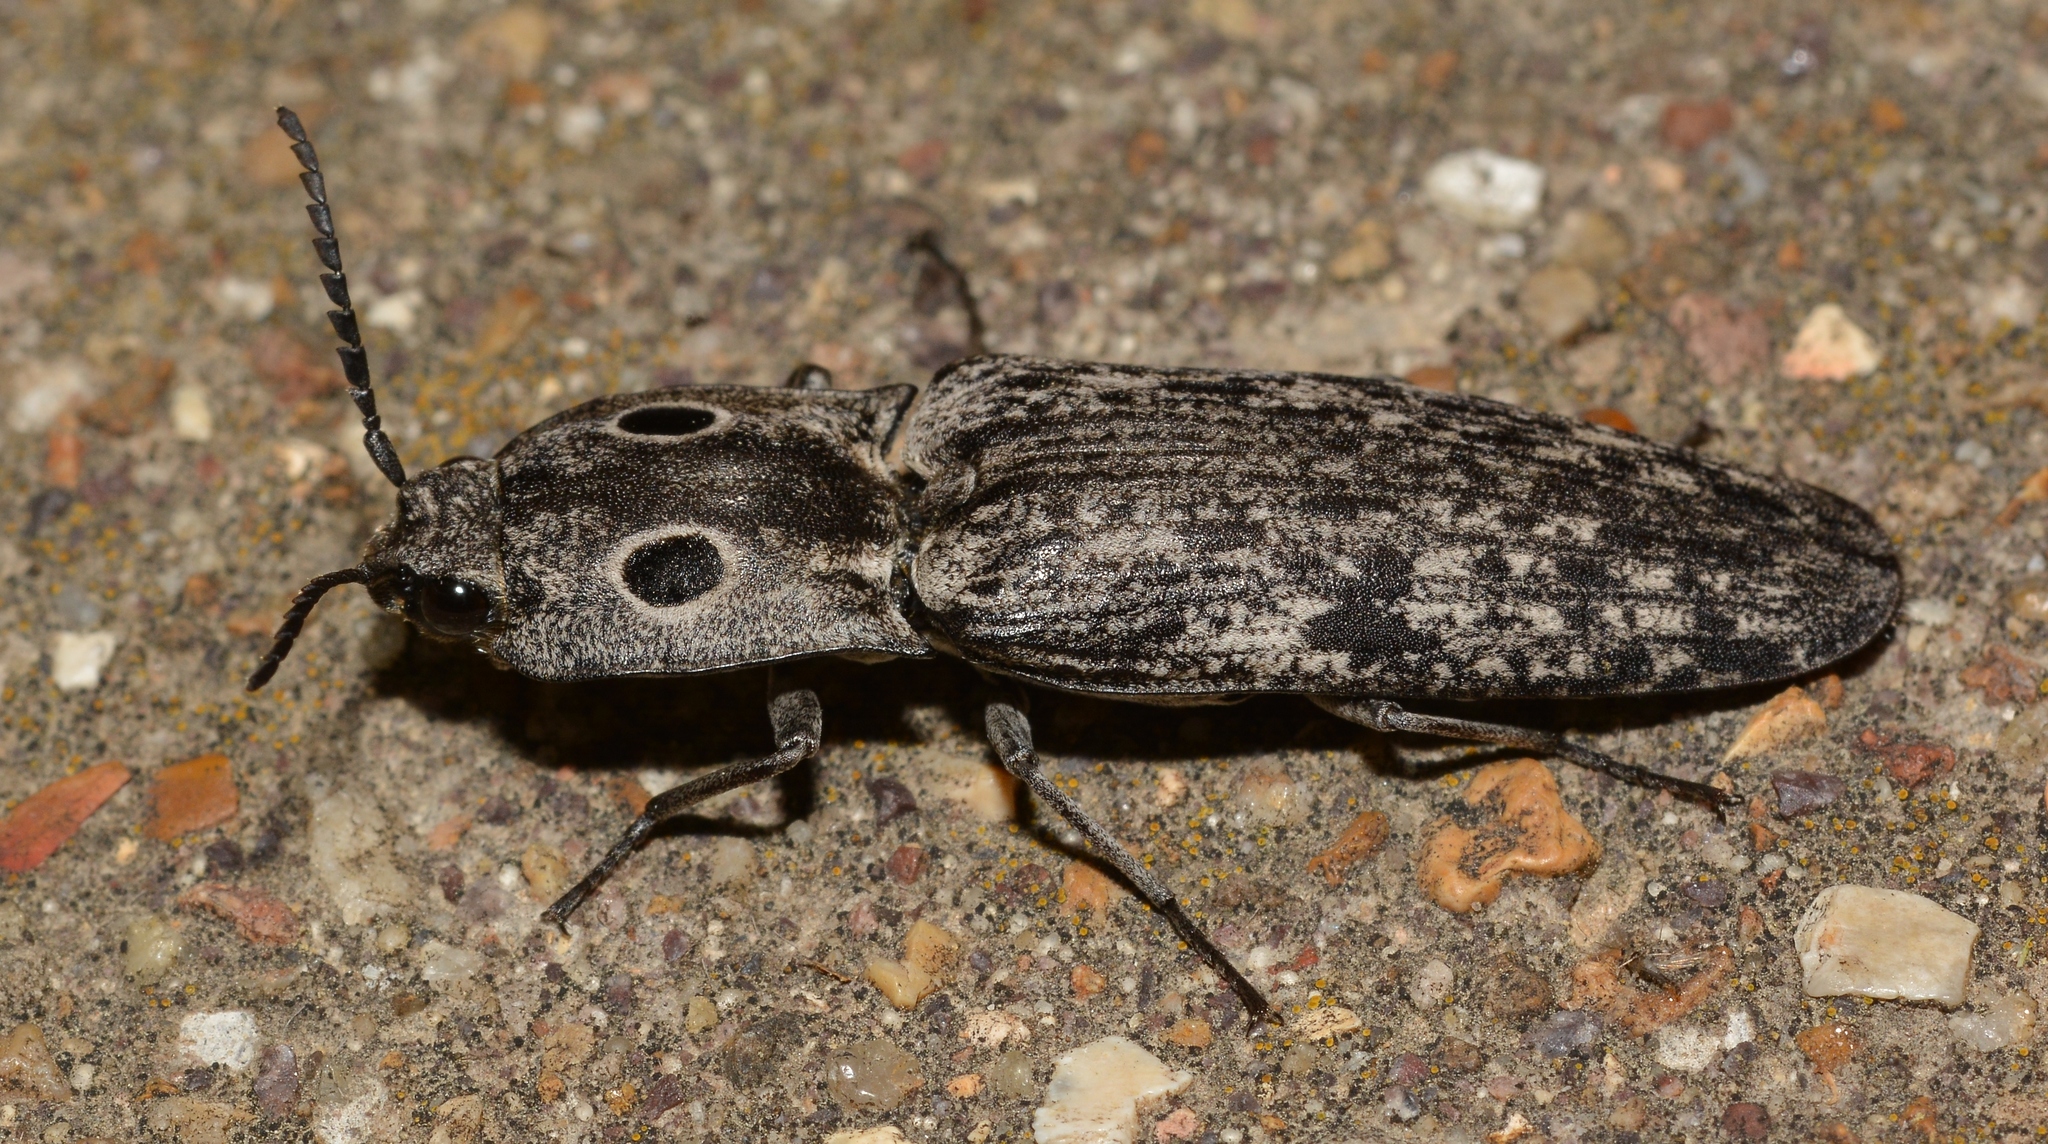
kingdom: Animalia
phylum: Arthropoda
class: Insecta
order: Coleoptera
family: Elateridae
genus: Alaus
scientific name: Alaus myops
